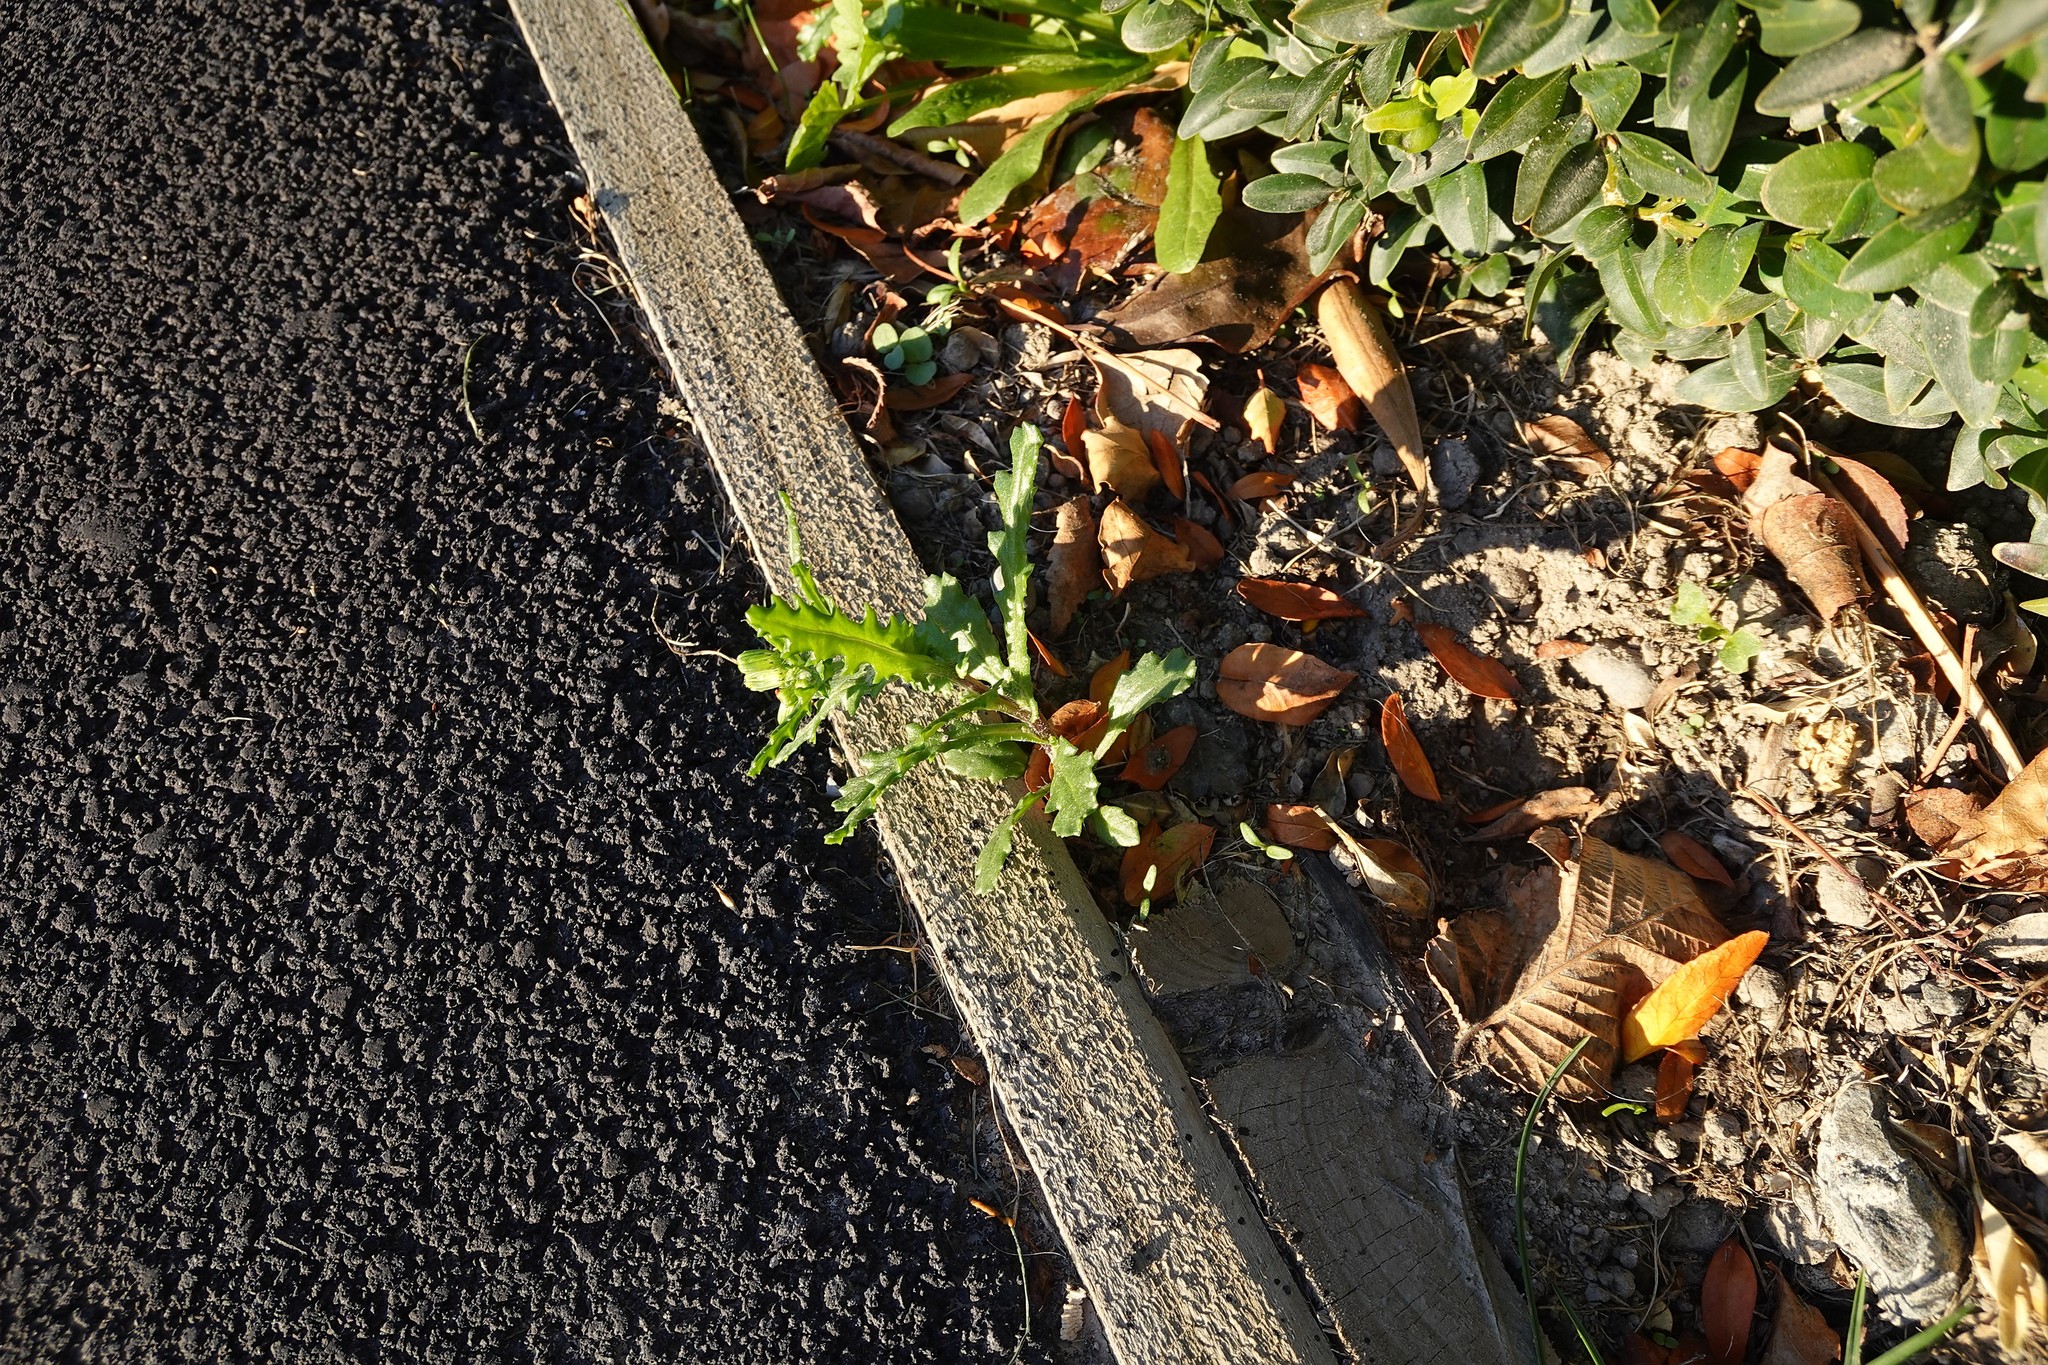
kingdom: Plantae
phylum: Tracheophyta
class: Magnoliopsida
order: Asterales
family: Asteraceae
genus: Senecio
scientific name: Senecio vulgaris
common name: Old-man-in-the-spring
